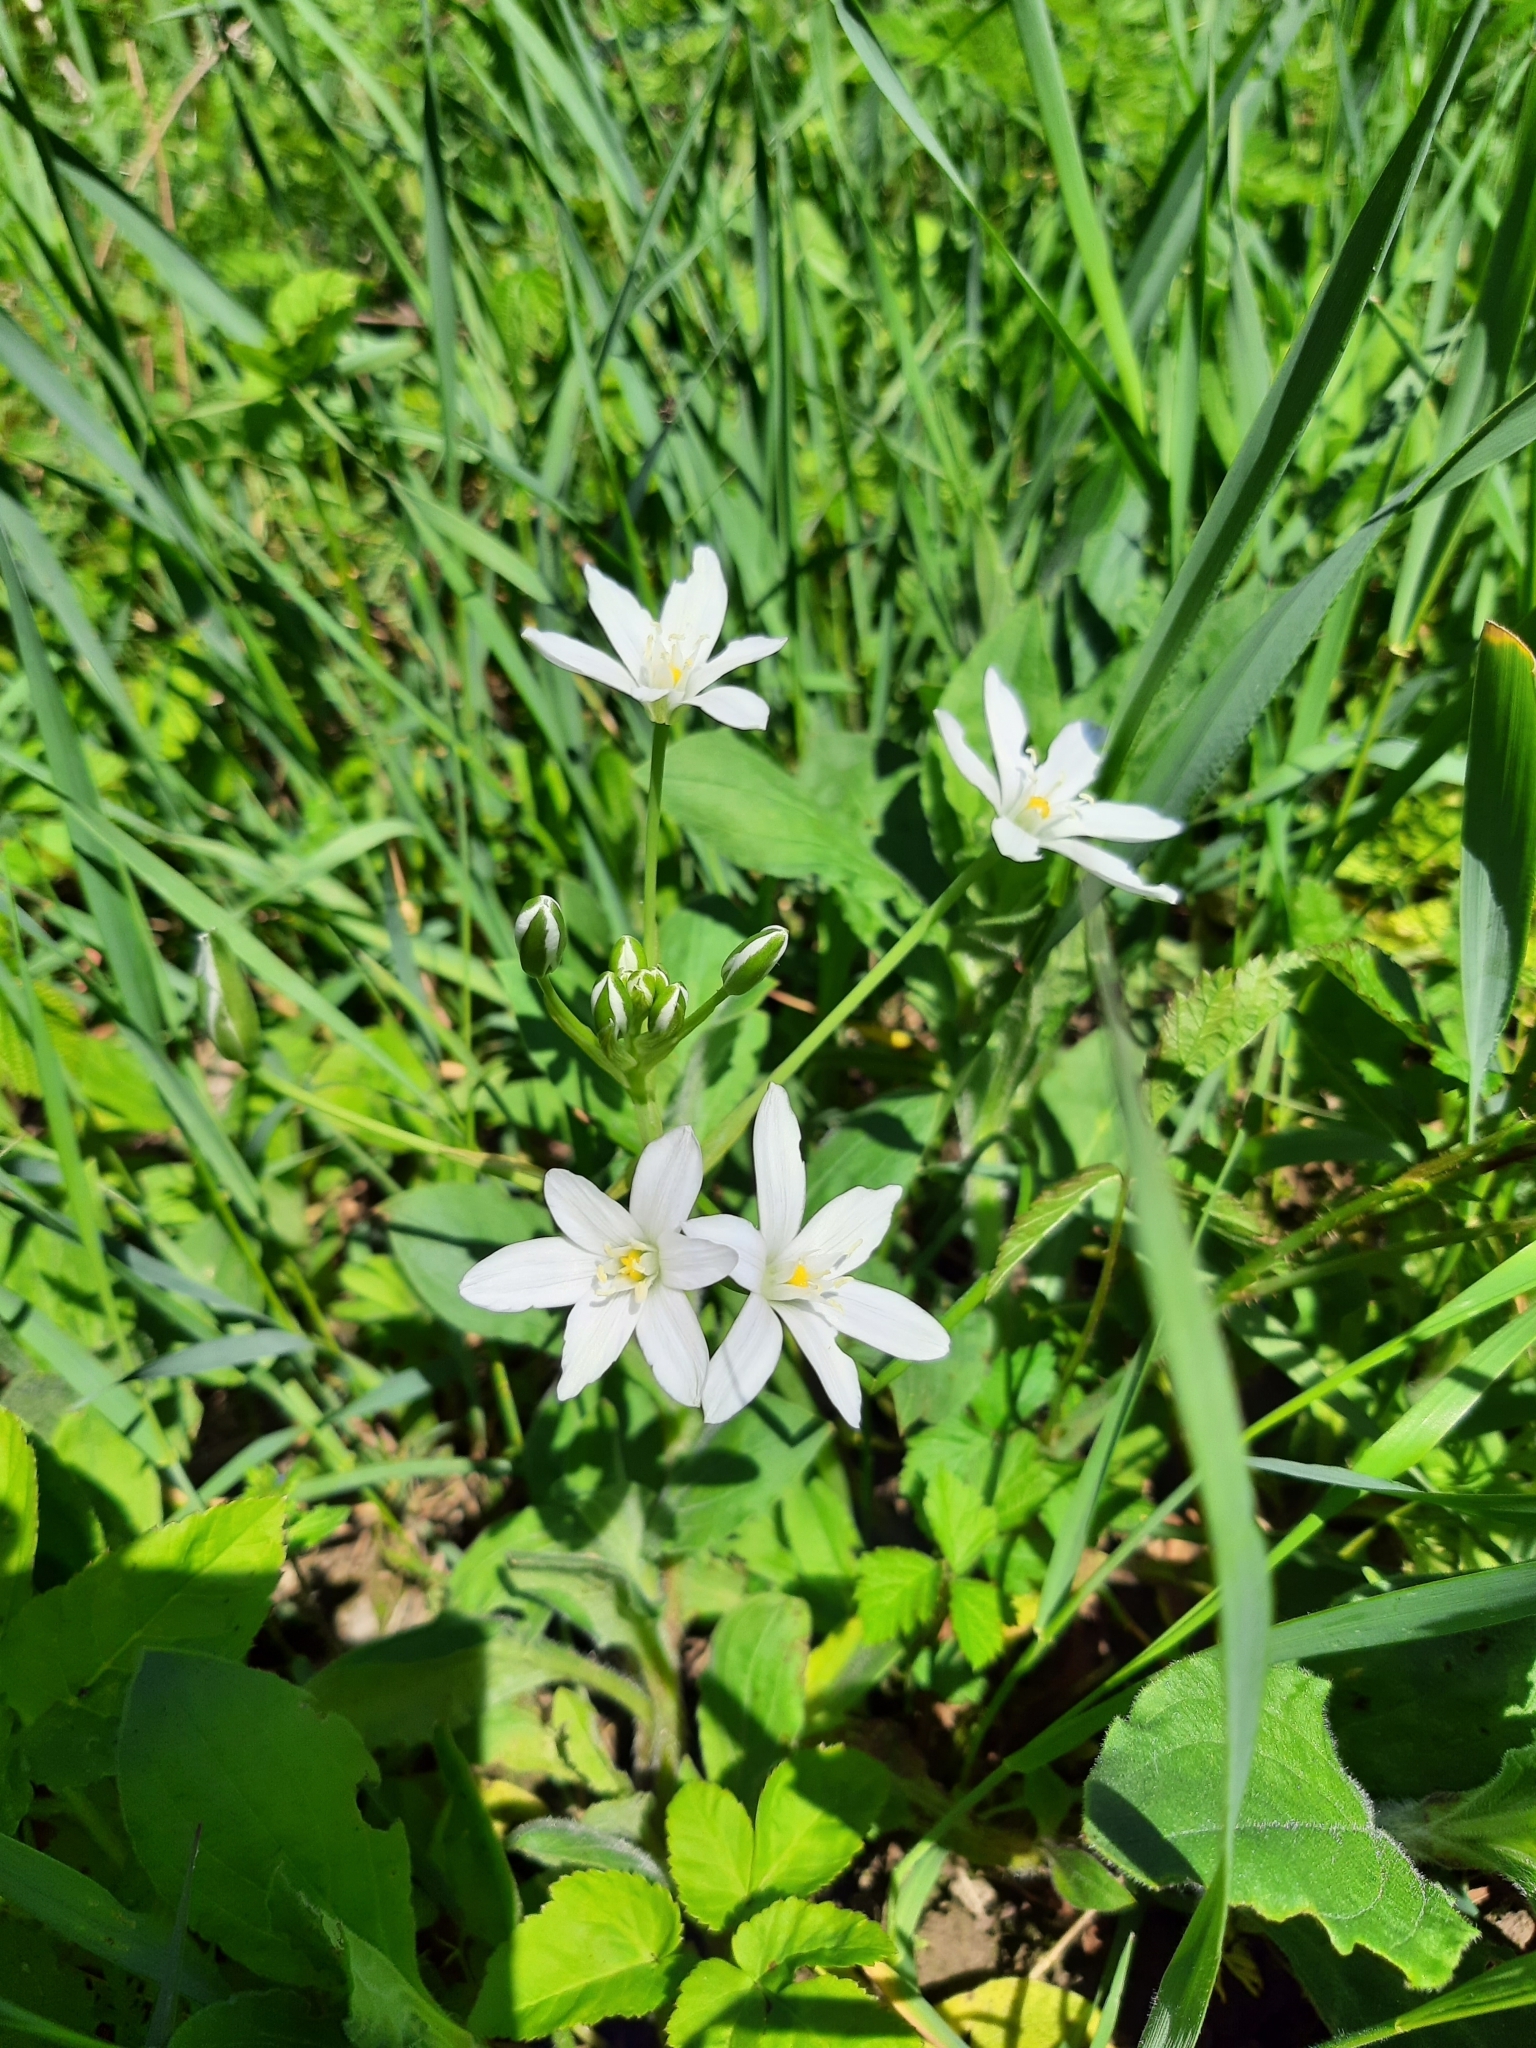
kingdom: Plantae
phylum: Tracheophyta
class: Liliopsida
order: Asparagales
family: Asparagaceae
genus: Ornithogalum
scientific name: Ornithogalum umbellatum
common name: Garden star-of-bethlehem
